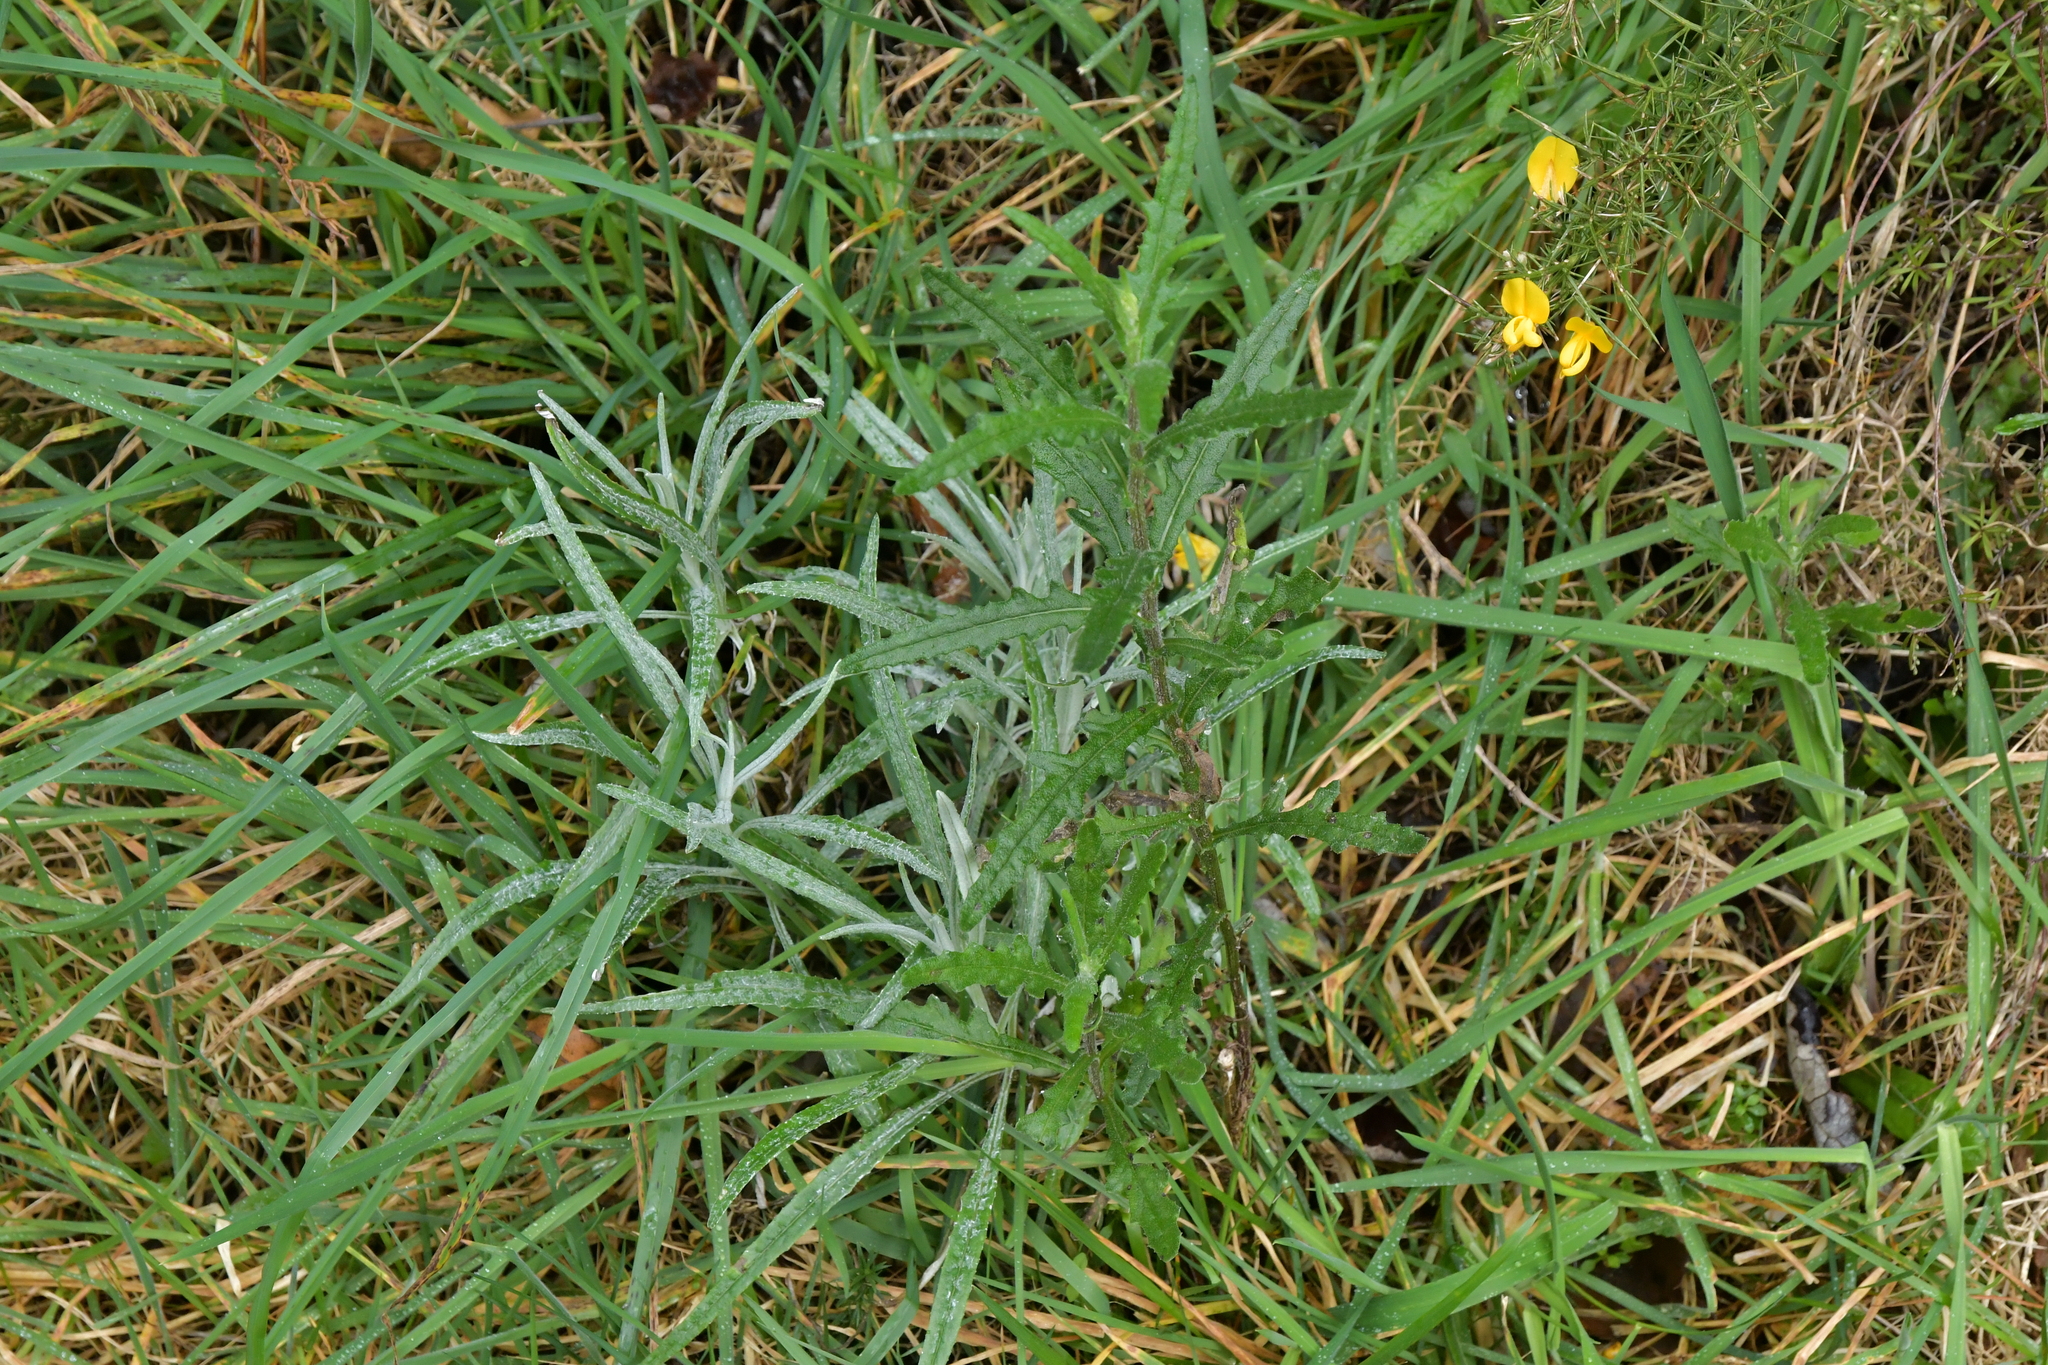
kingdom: Plantae
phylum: Tracheophyta
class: Magnoliopsida
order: Asterales
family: Asteraceae
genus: Senecio
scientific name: Senecio hispidulus
